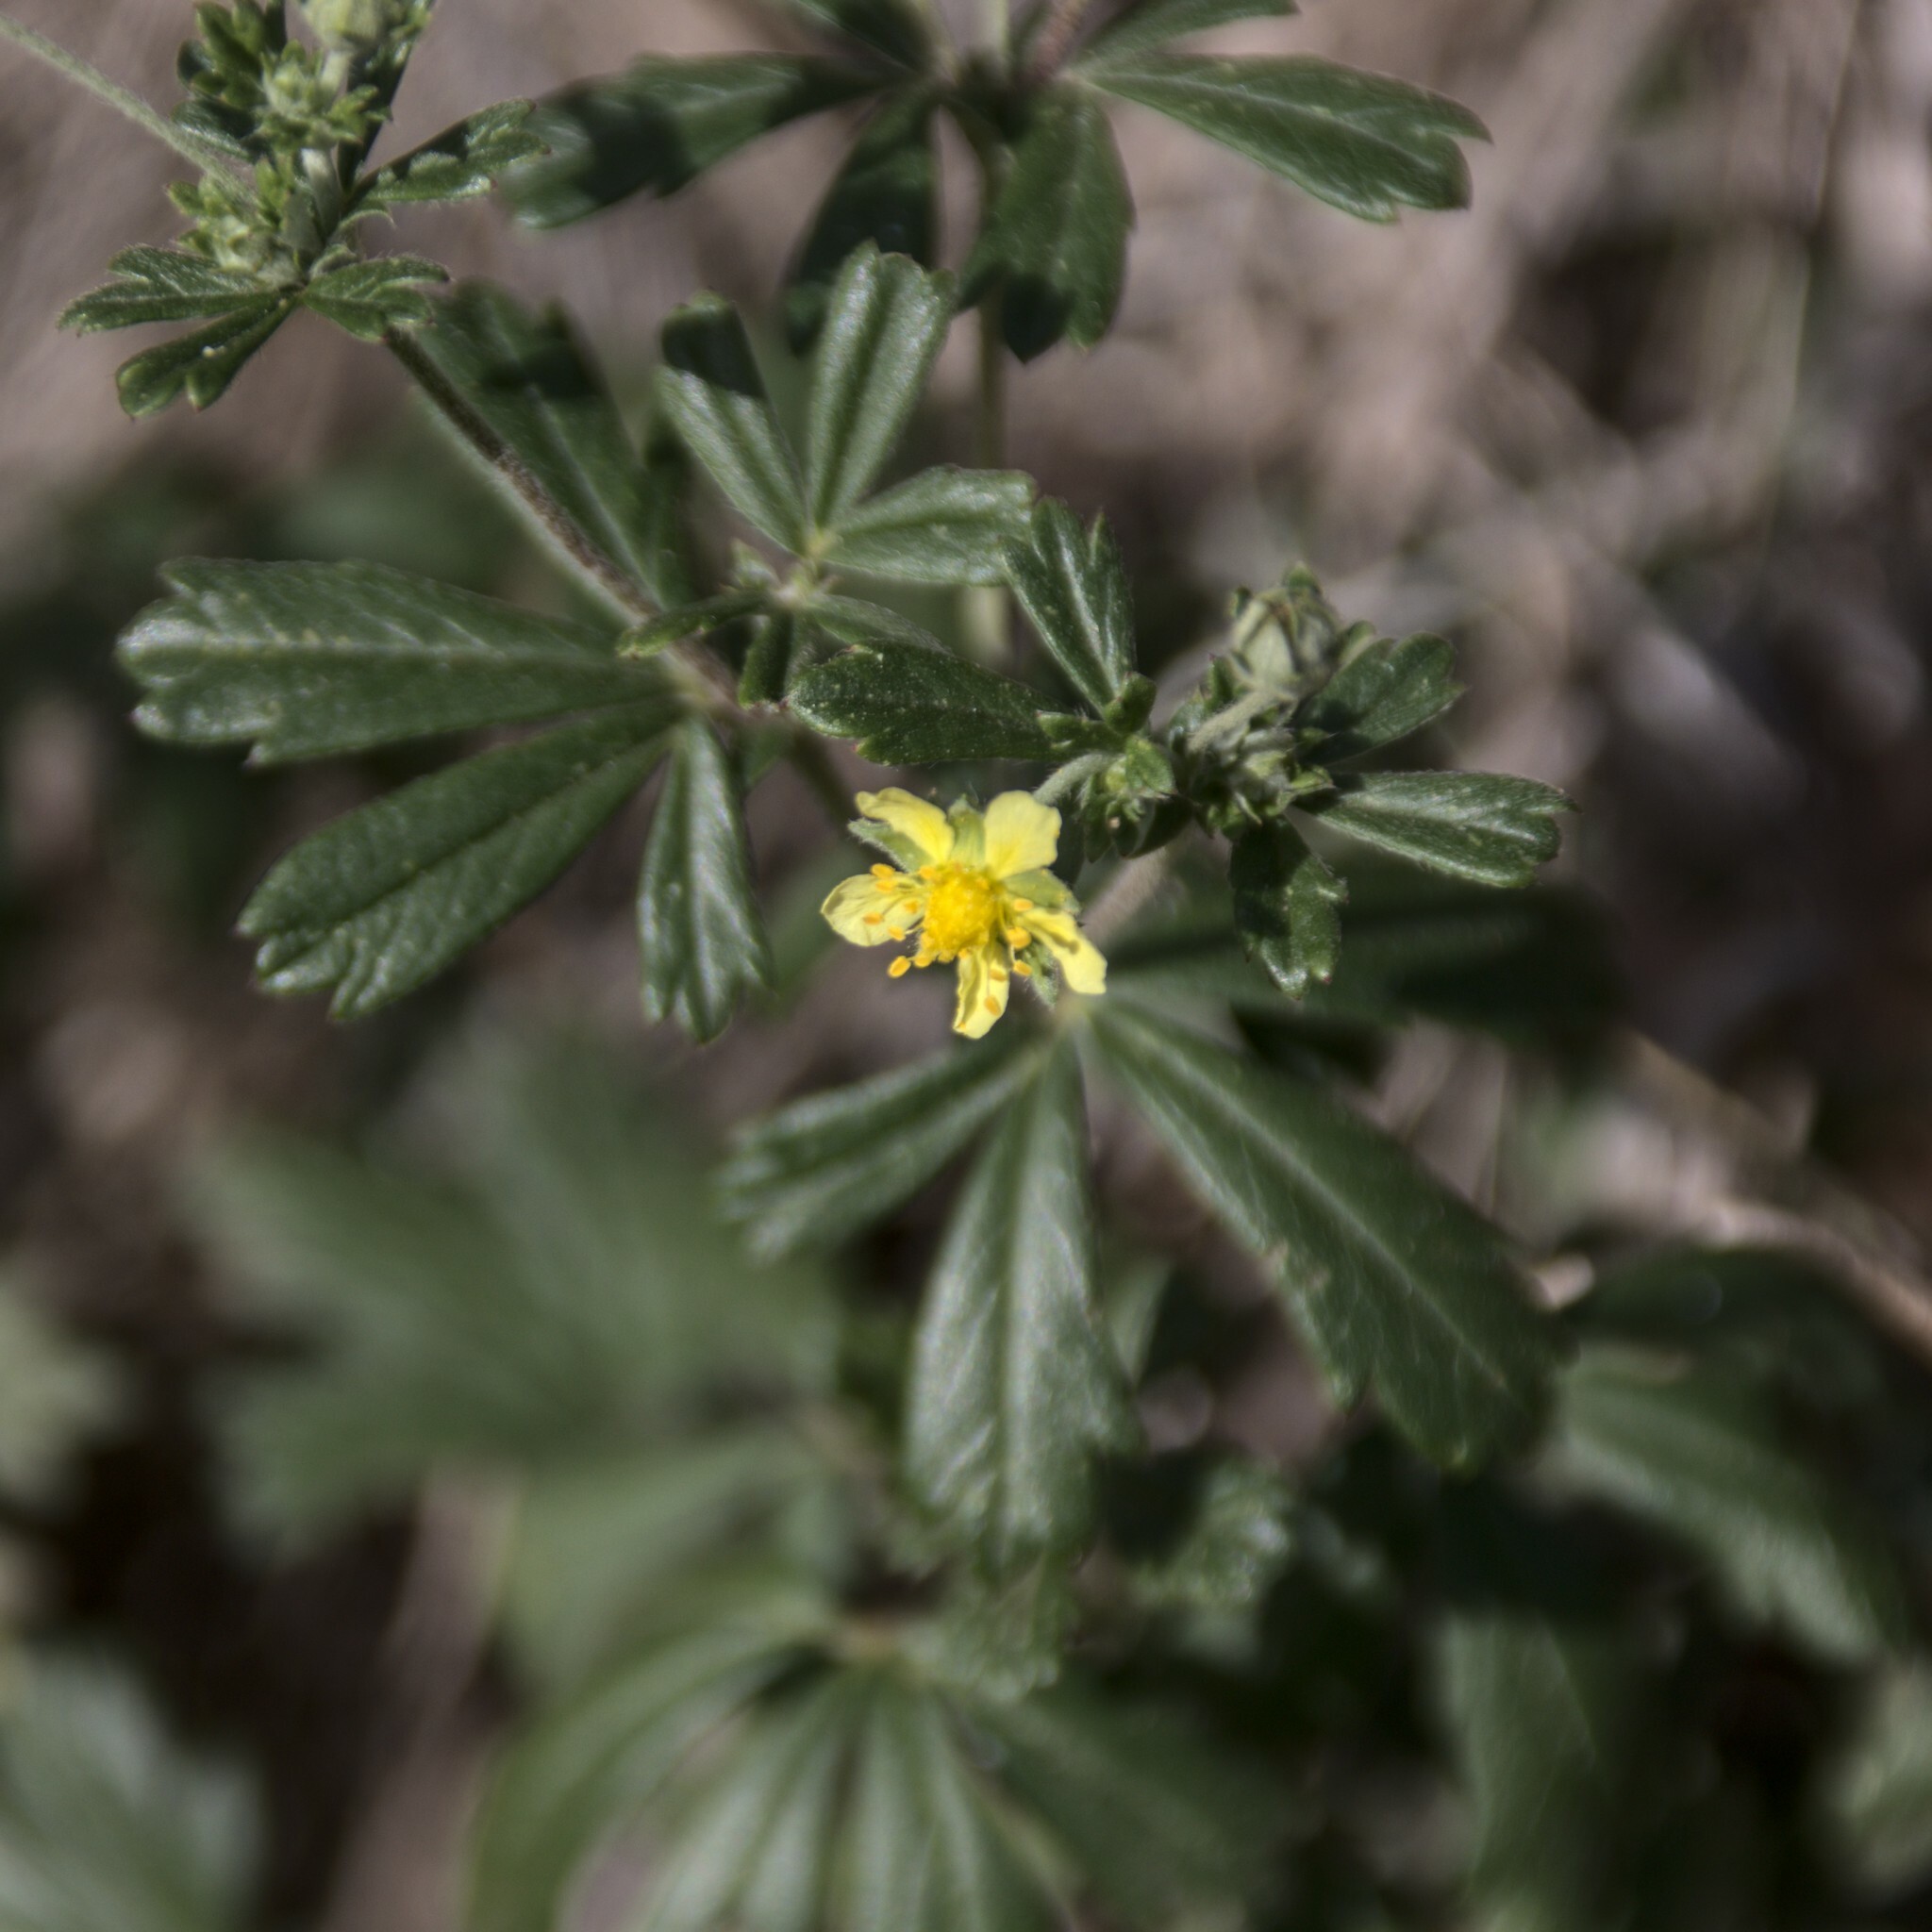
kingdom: Plantae
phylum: Tracheophyta
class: Magnoliopsida
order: Rosales
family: Rosaceae
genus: Potentilla
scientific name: Potentilla argentea
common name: Hoary cinquefoil
